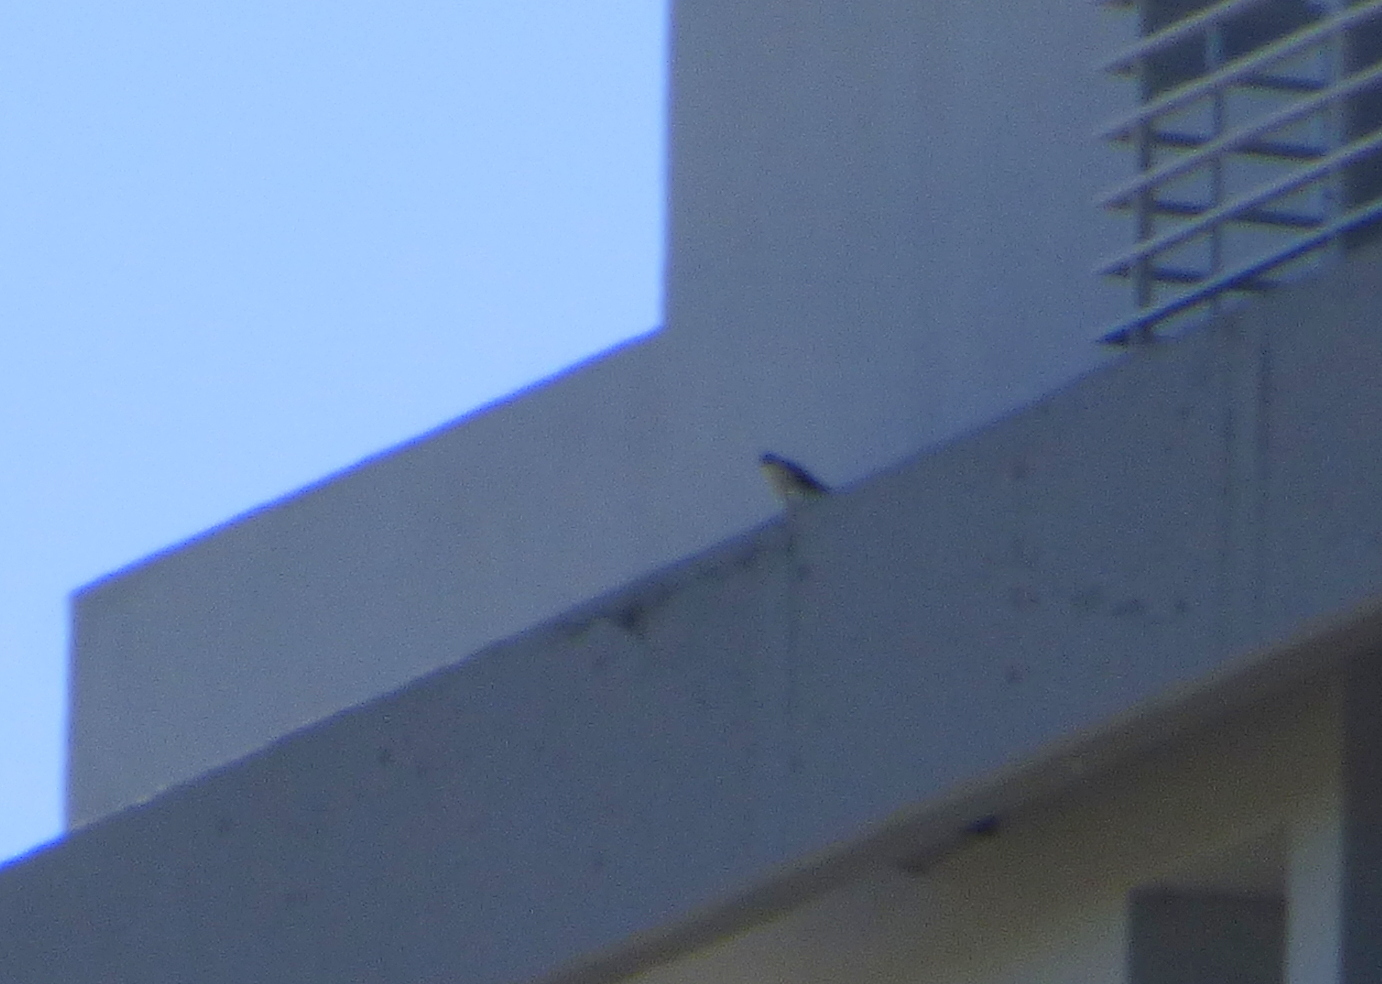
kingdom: Animalia
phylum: Chordata
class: Aves
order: Falconiformes
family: Falconidae
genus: Falco
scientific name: Falco peregrinus
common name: Peregrine falcon
